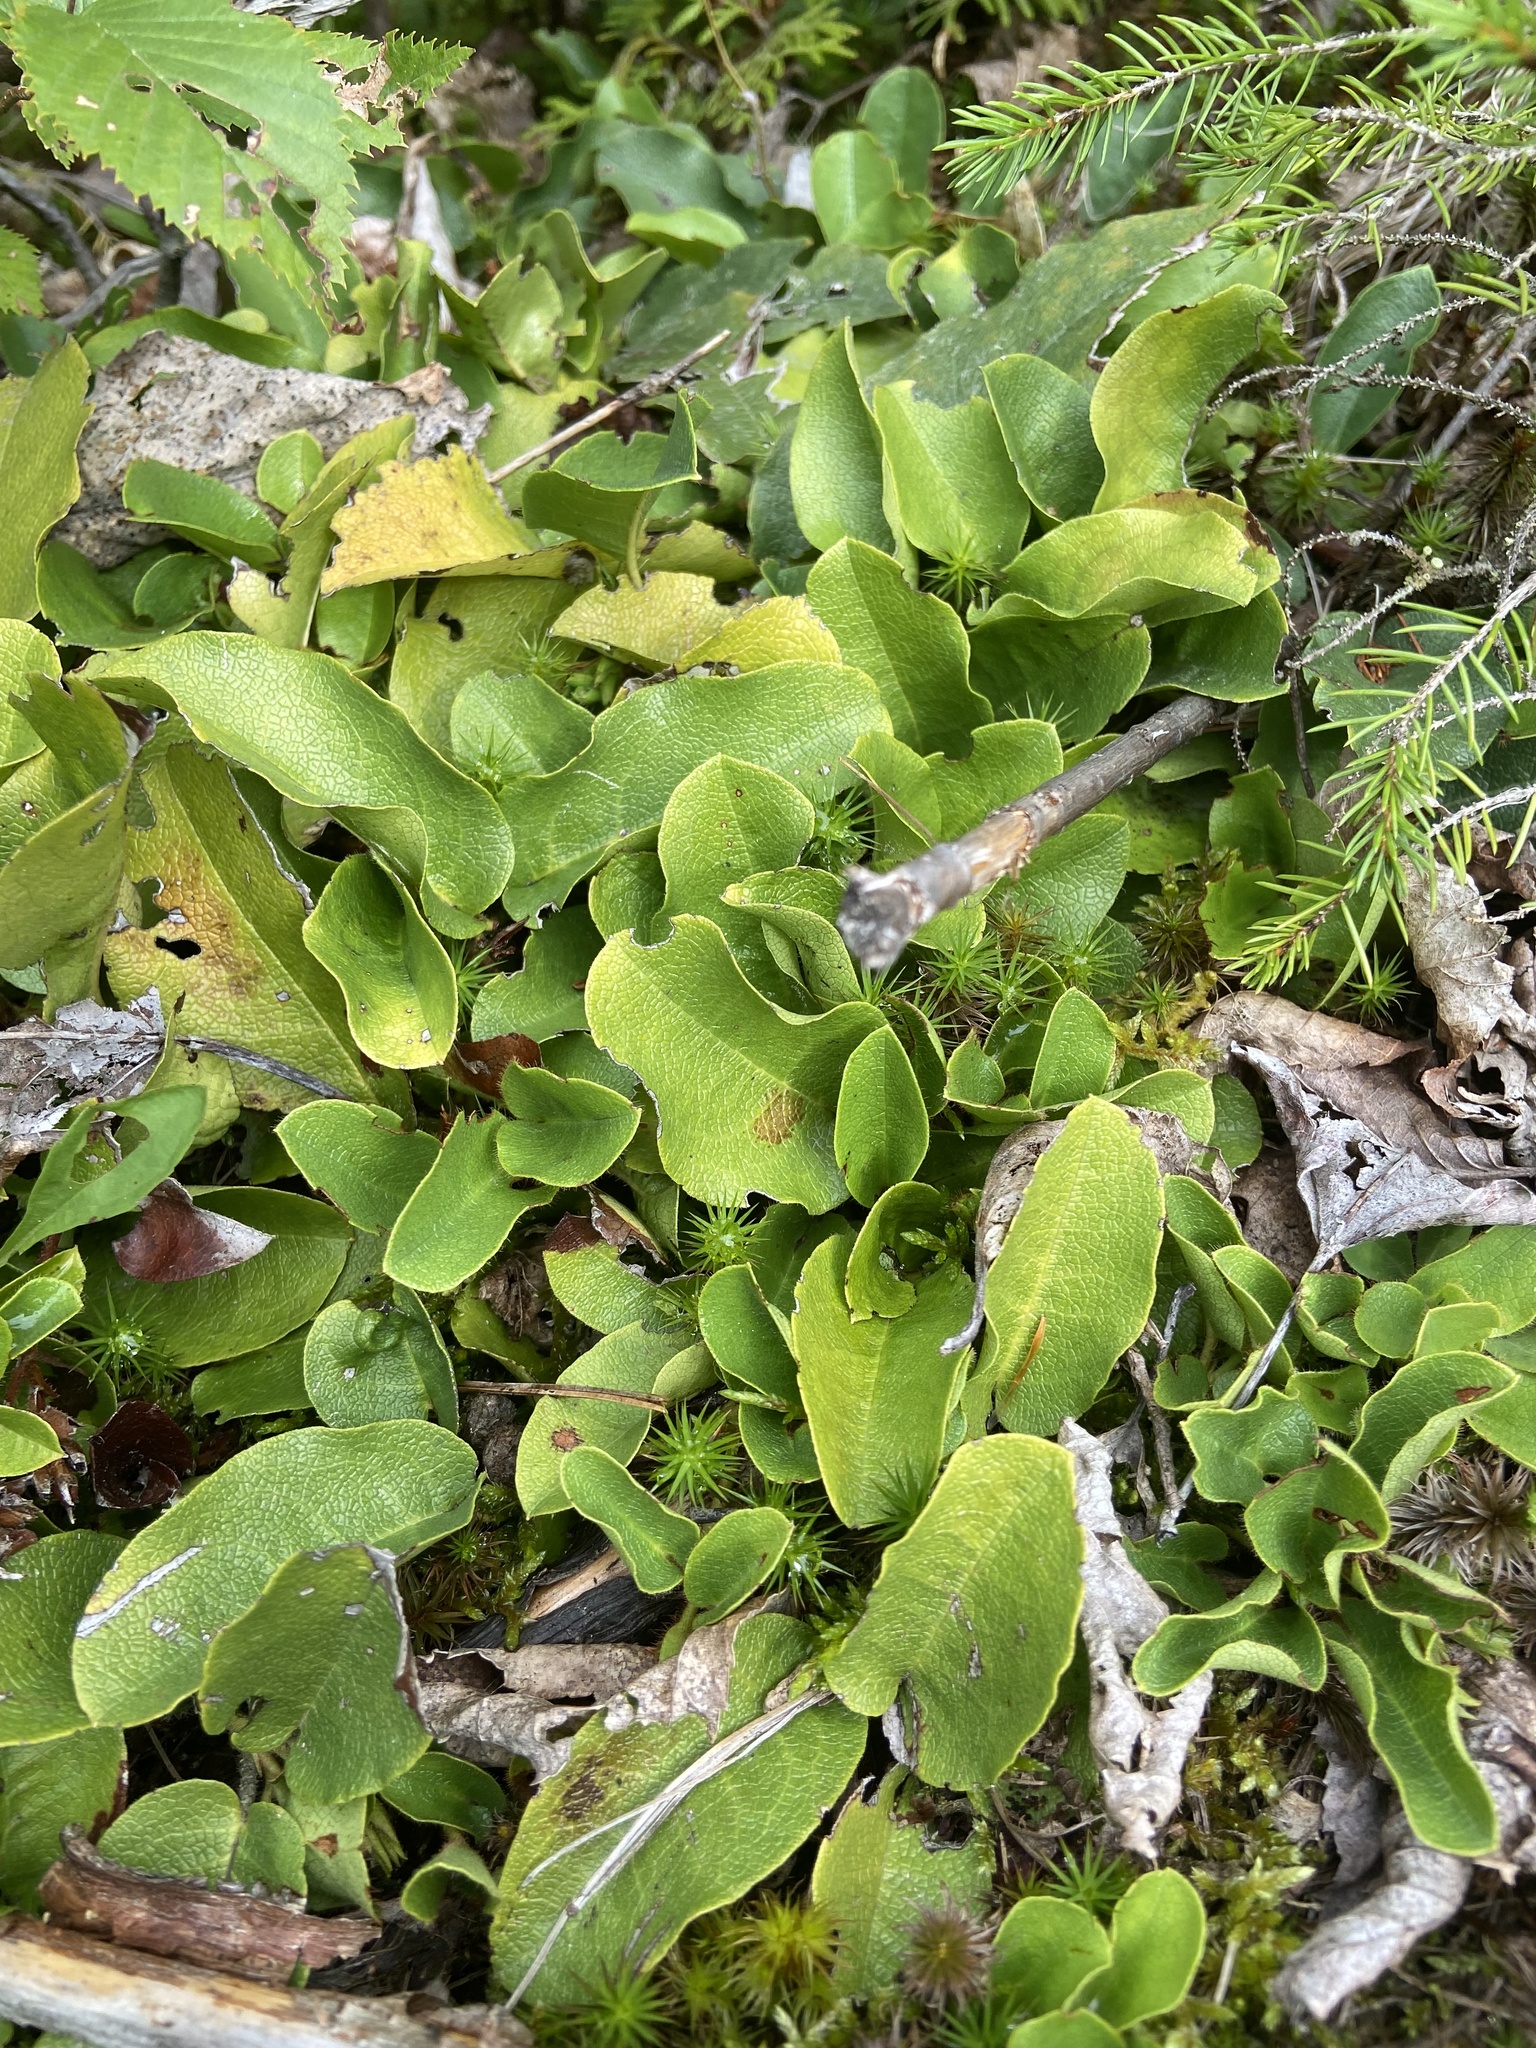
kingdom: Plantae
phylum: Tracheophyta
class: Magnoliopsida
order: Ericales
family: Ericaceae
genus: Epigaea
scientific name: Epigaea repens
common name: Gravelroot
